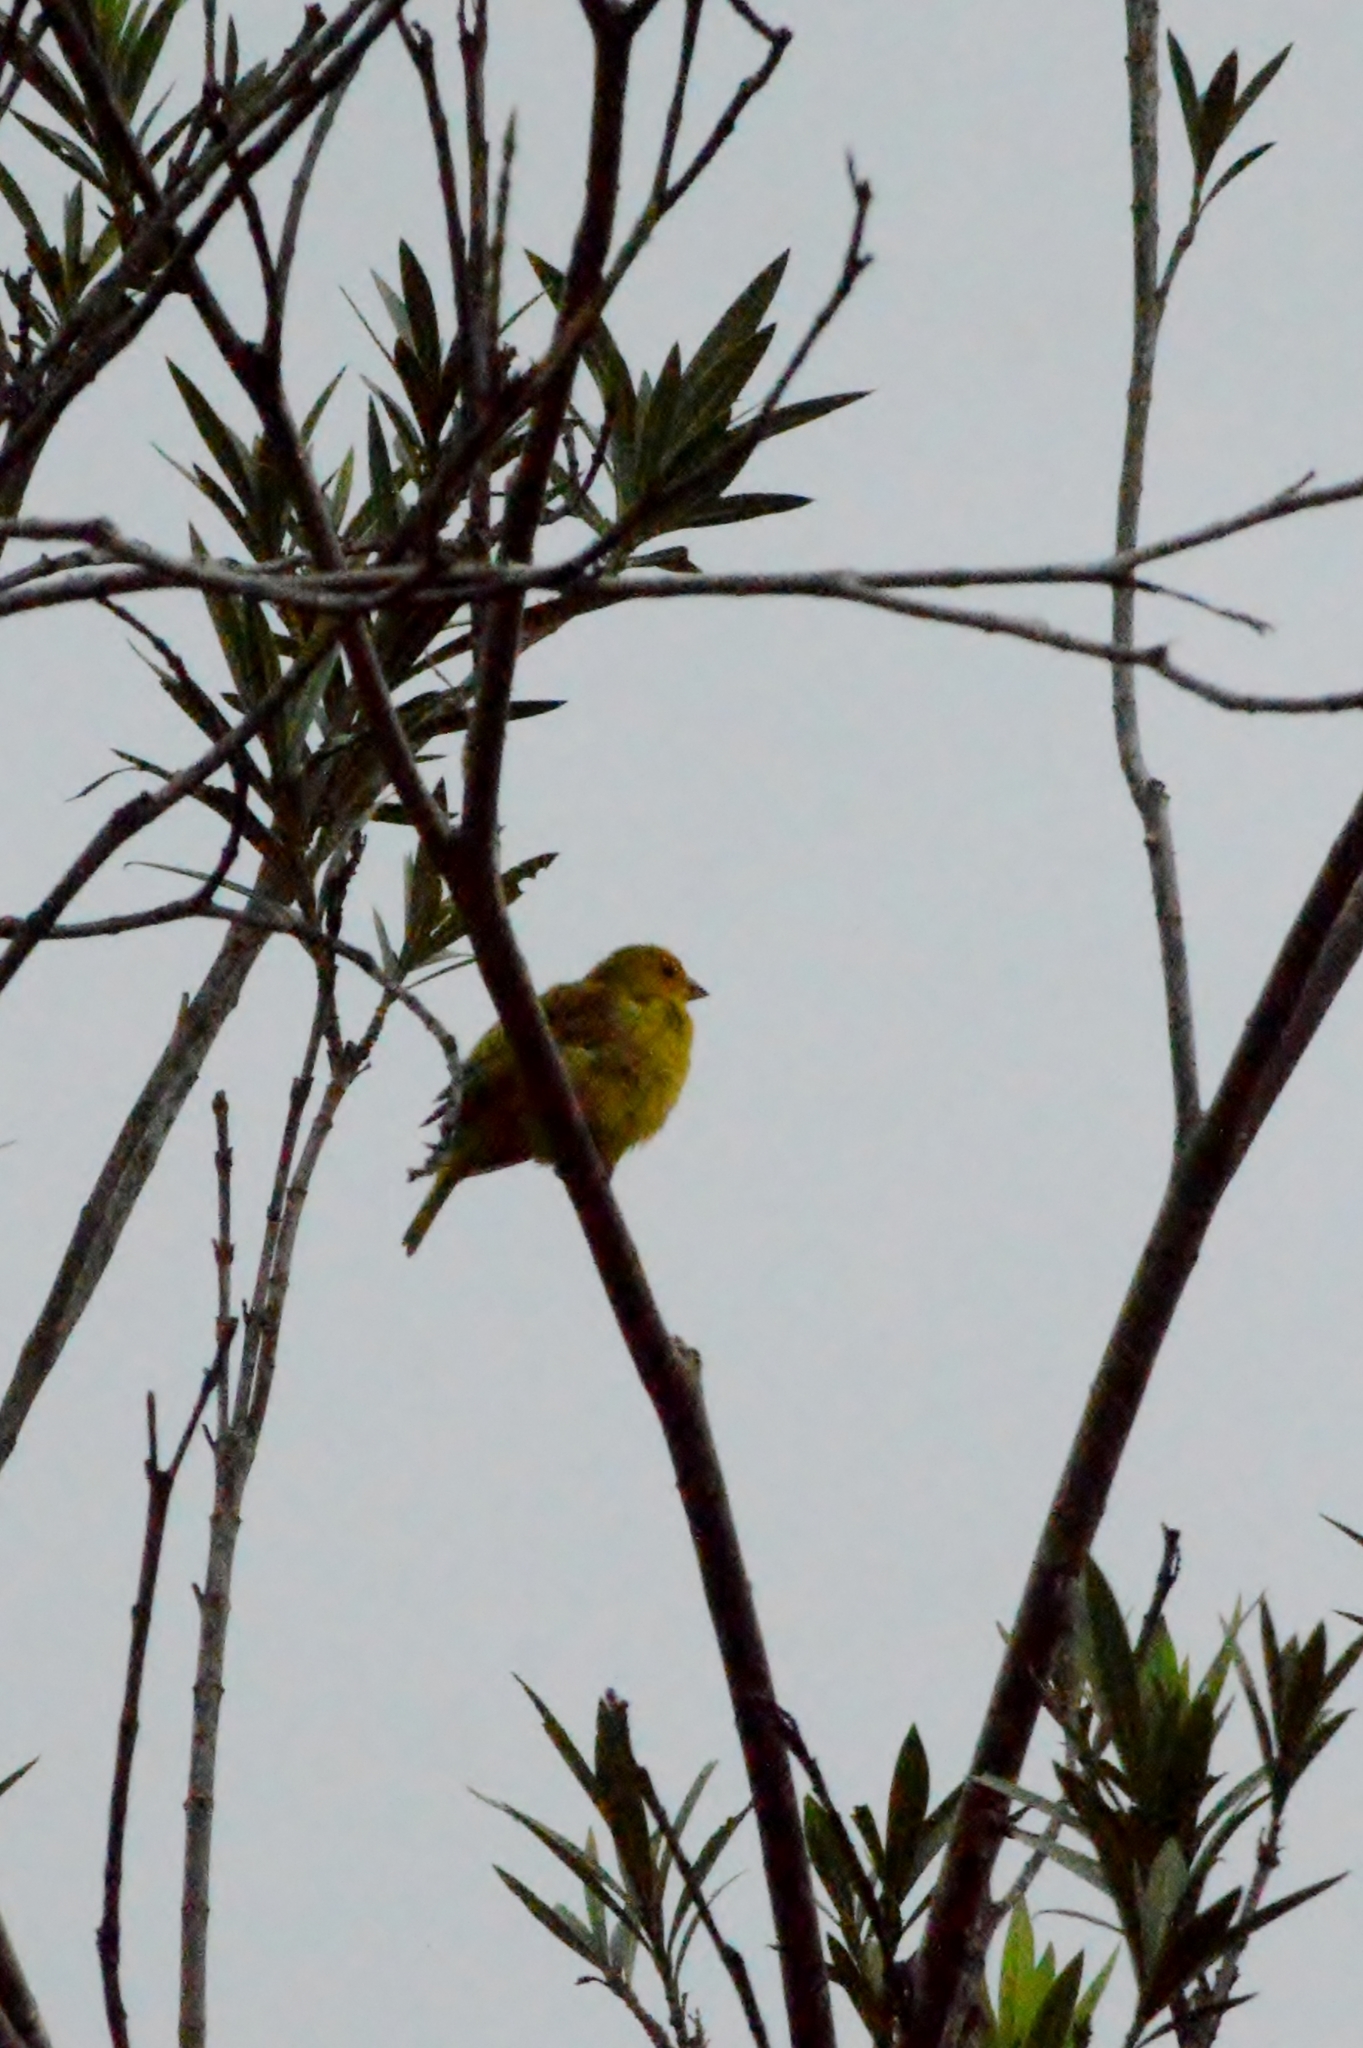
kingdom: Animalia
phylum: Chordata
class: Aves
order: Passeriformes
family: Thraupidae
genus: Sicalis
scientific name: Sicalis flaveola
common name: Saffron finch
